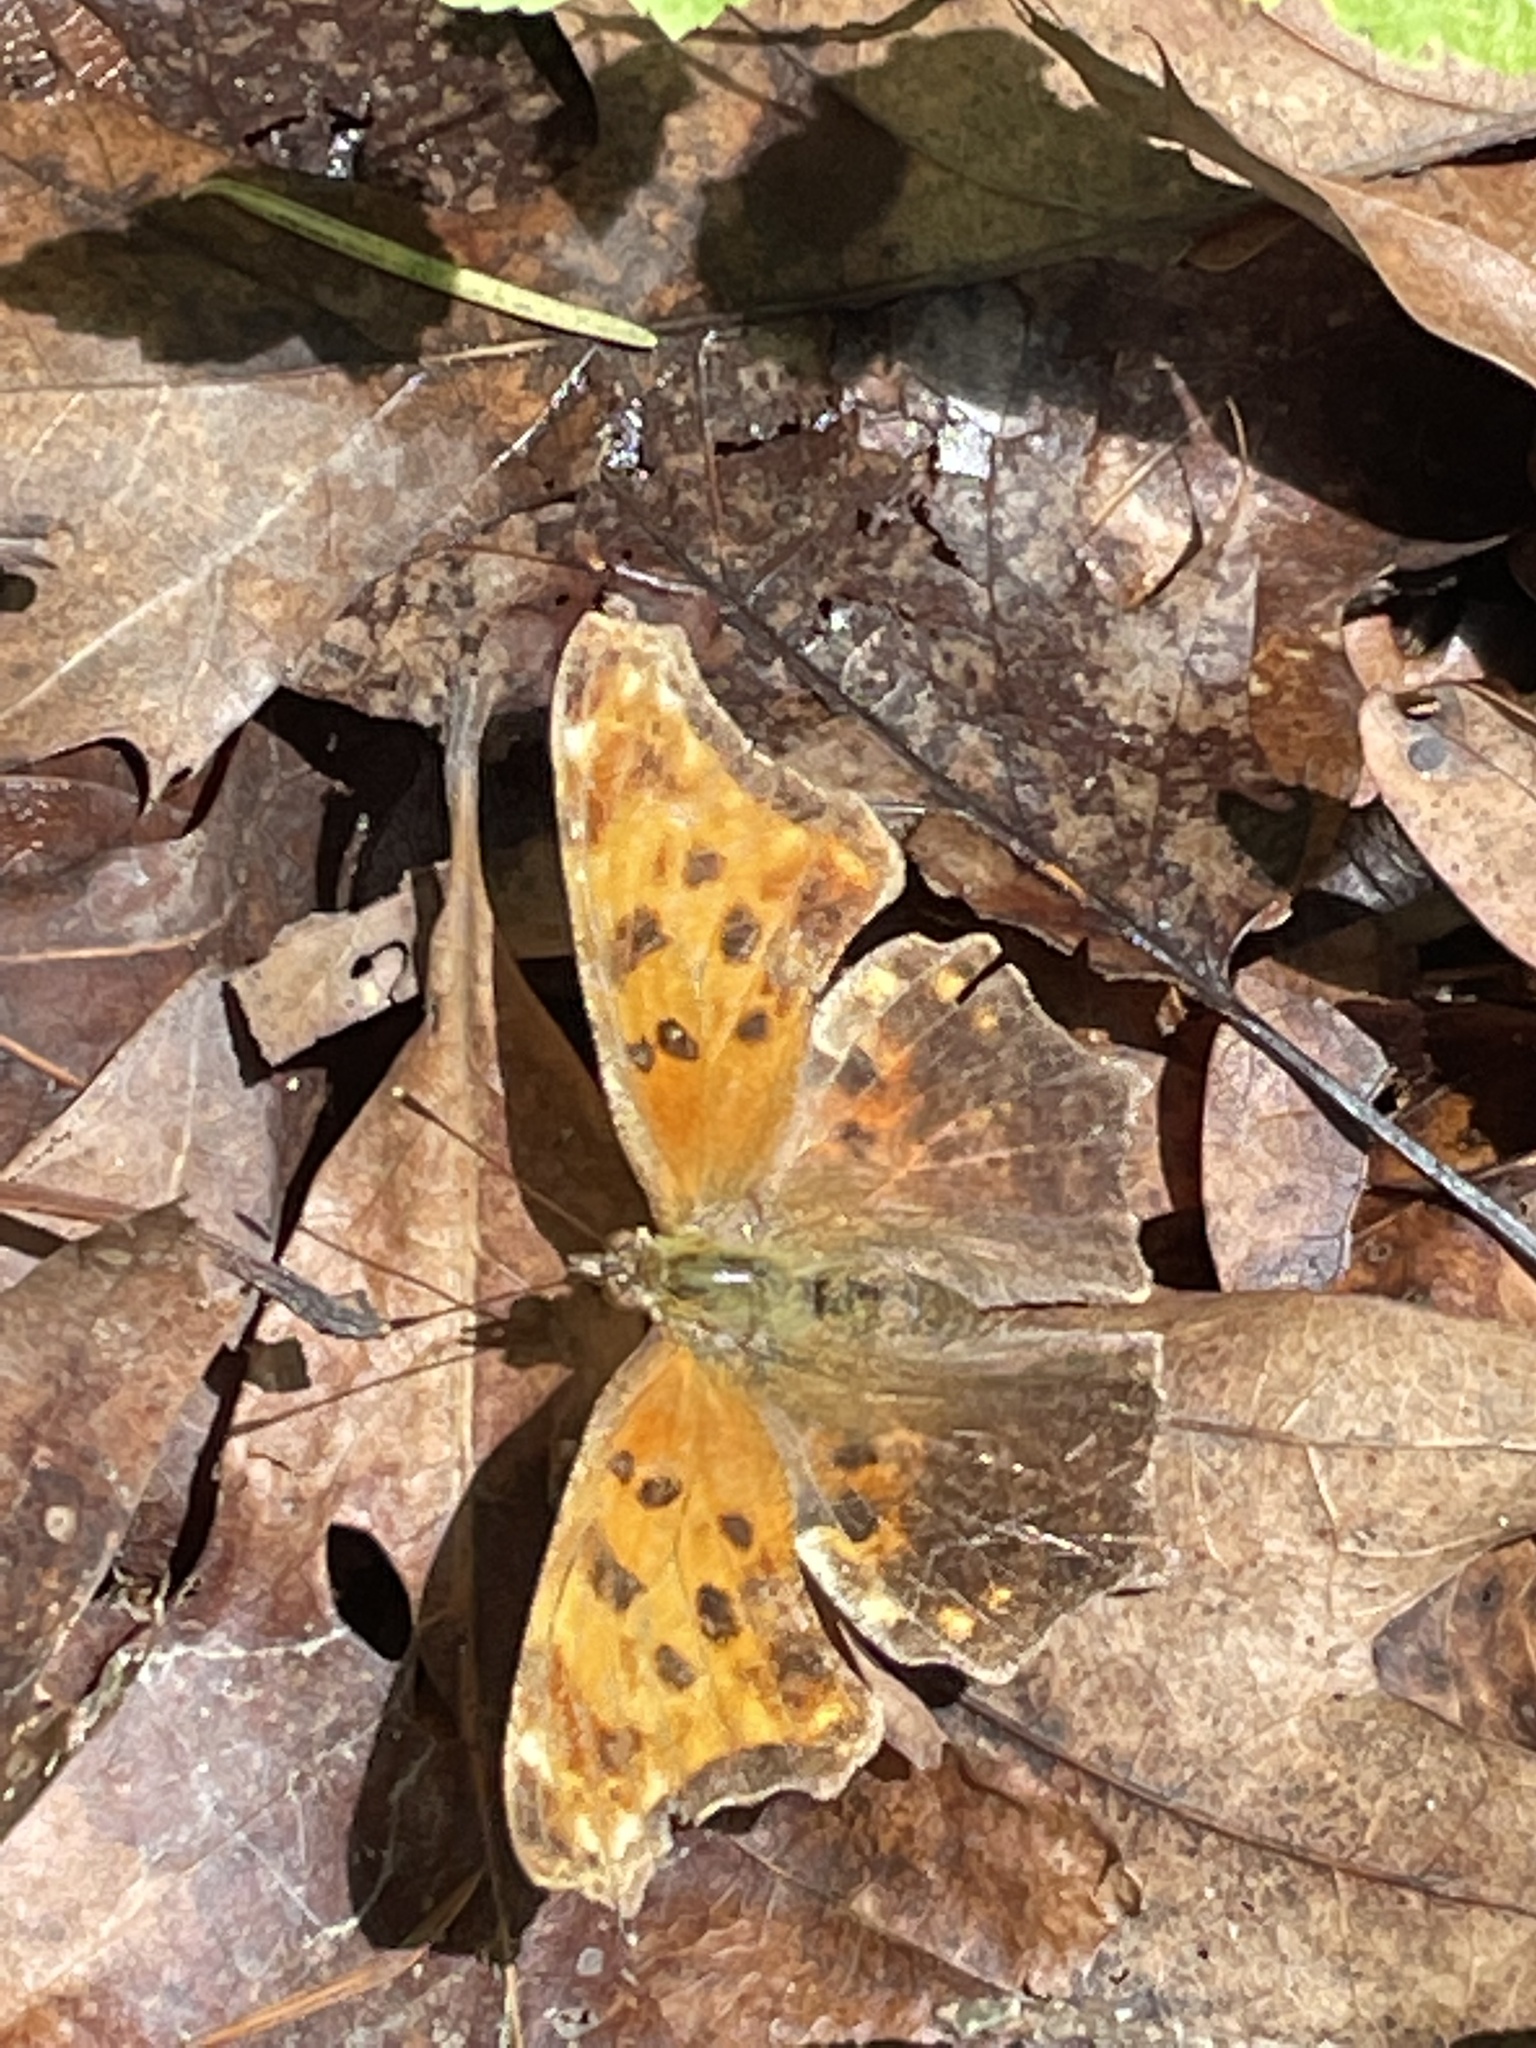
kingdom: Animalia
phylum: Arthropoda
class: Insecta
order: Lepidoptera
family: Nymphalidae
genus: Polygonia
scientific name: Polygonia comma
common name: Eastern comma
